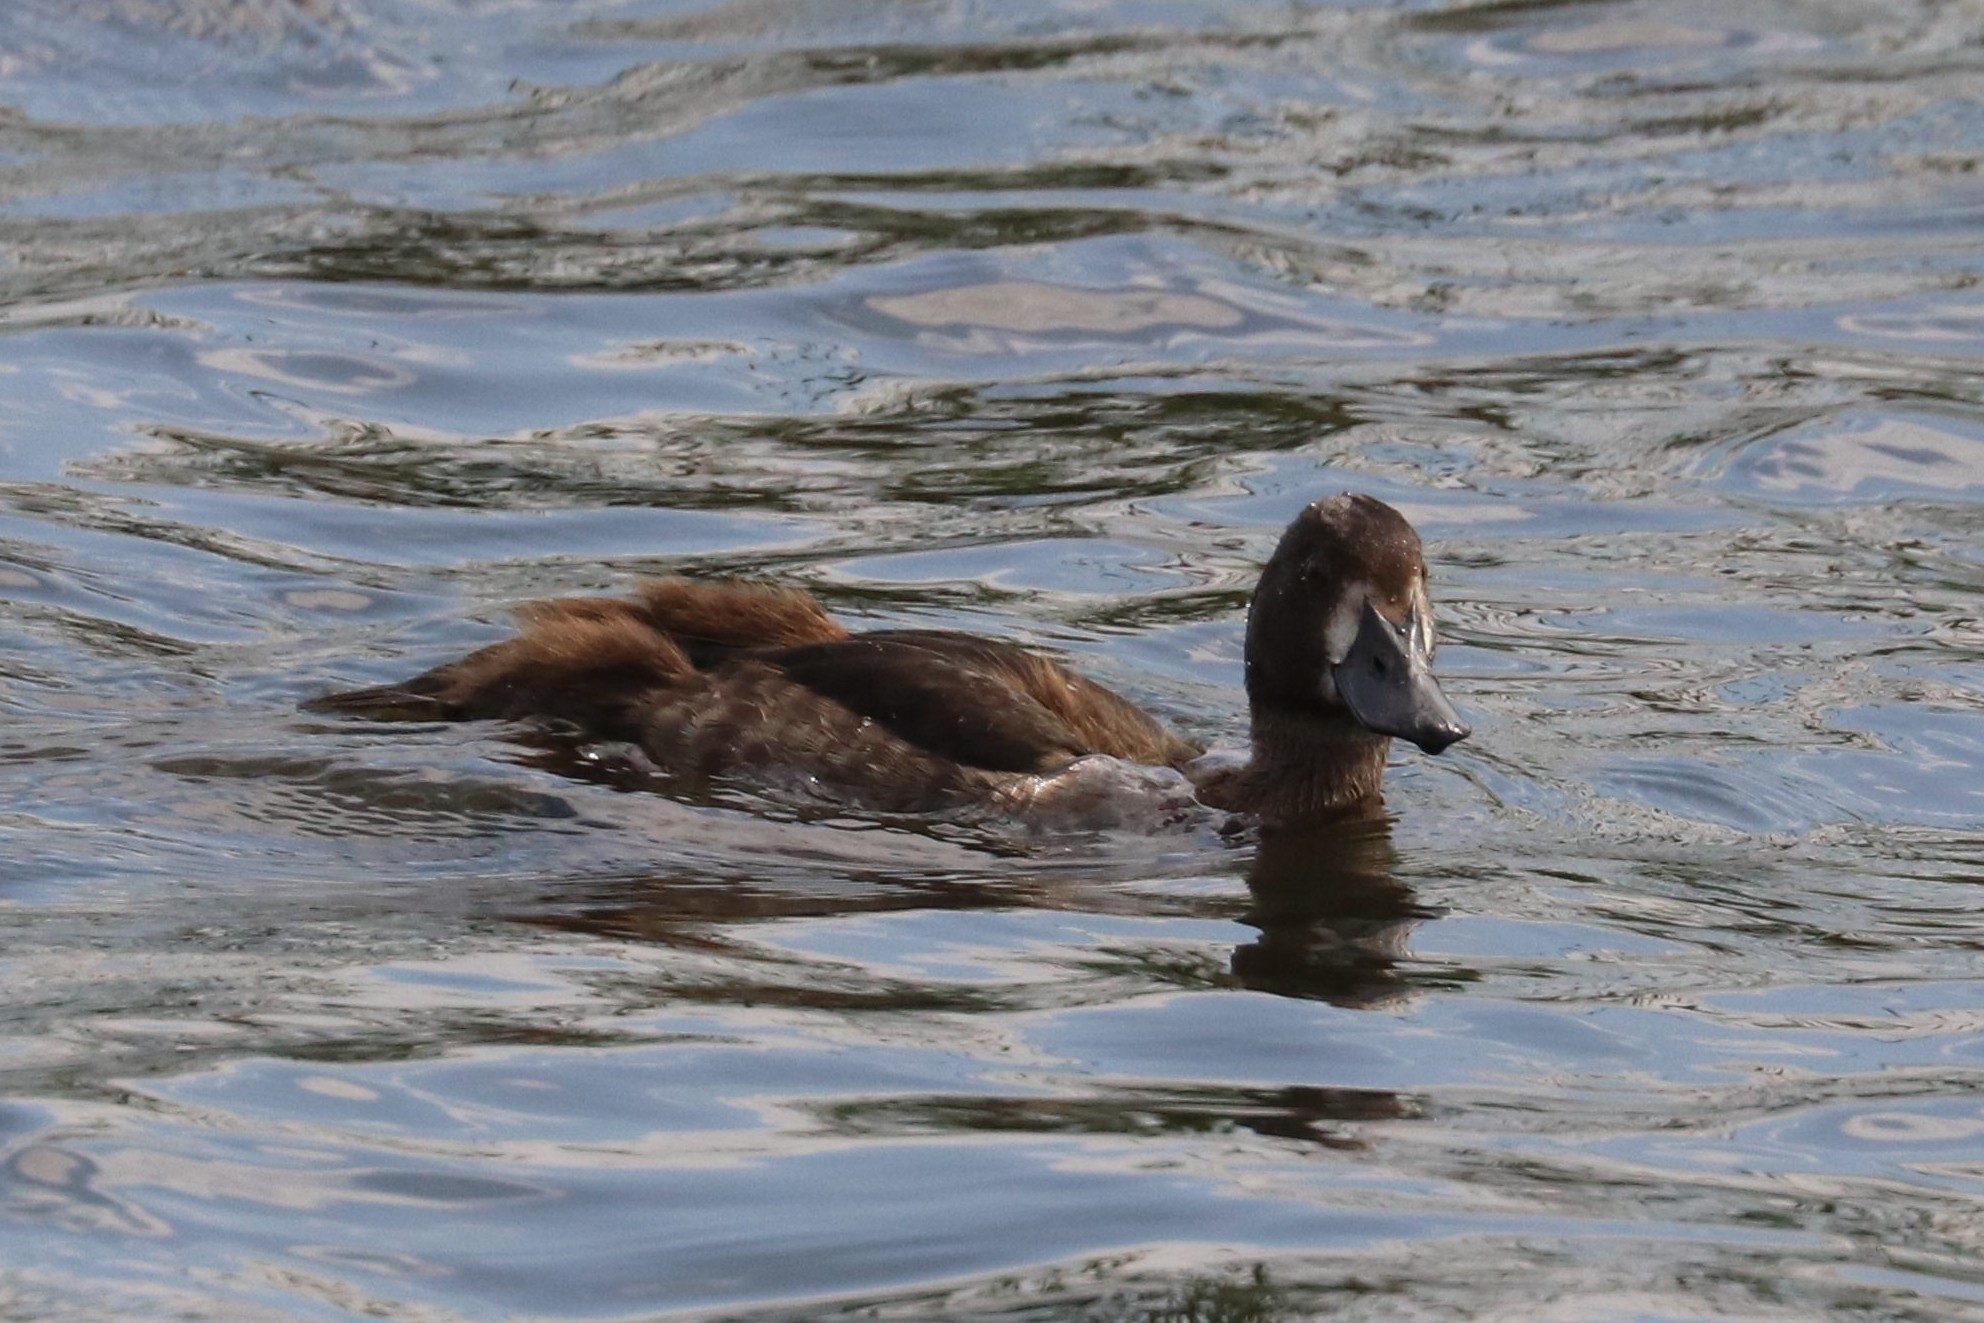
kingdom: Animalia
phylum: Chordata
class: Aves
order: Anseriformes
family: Anatidae
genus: Aythya
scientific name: Aythya fuligula
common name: Tufted duck
